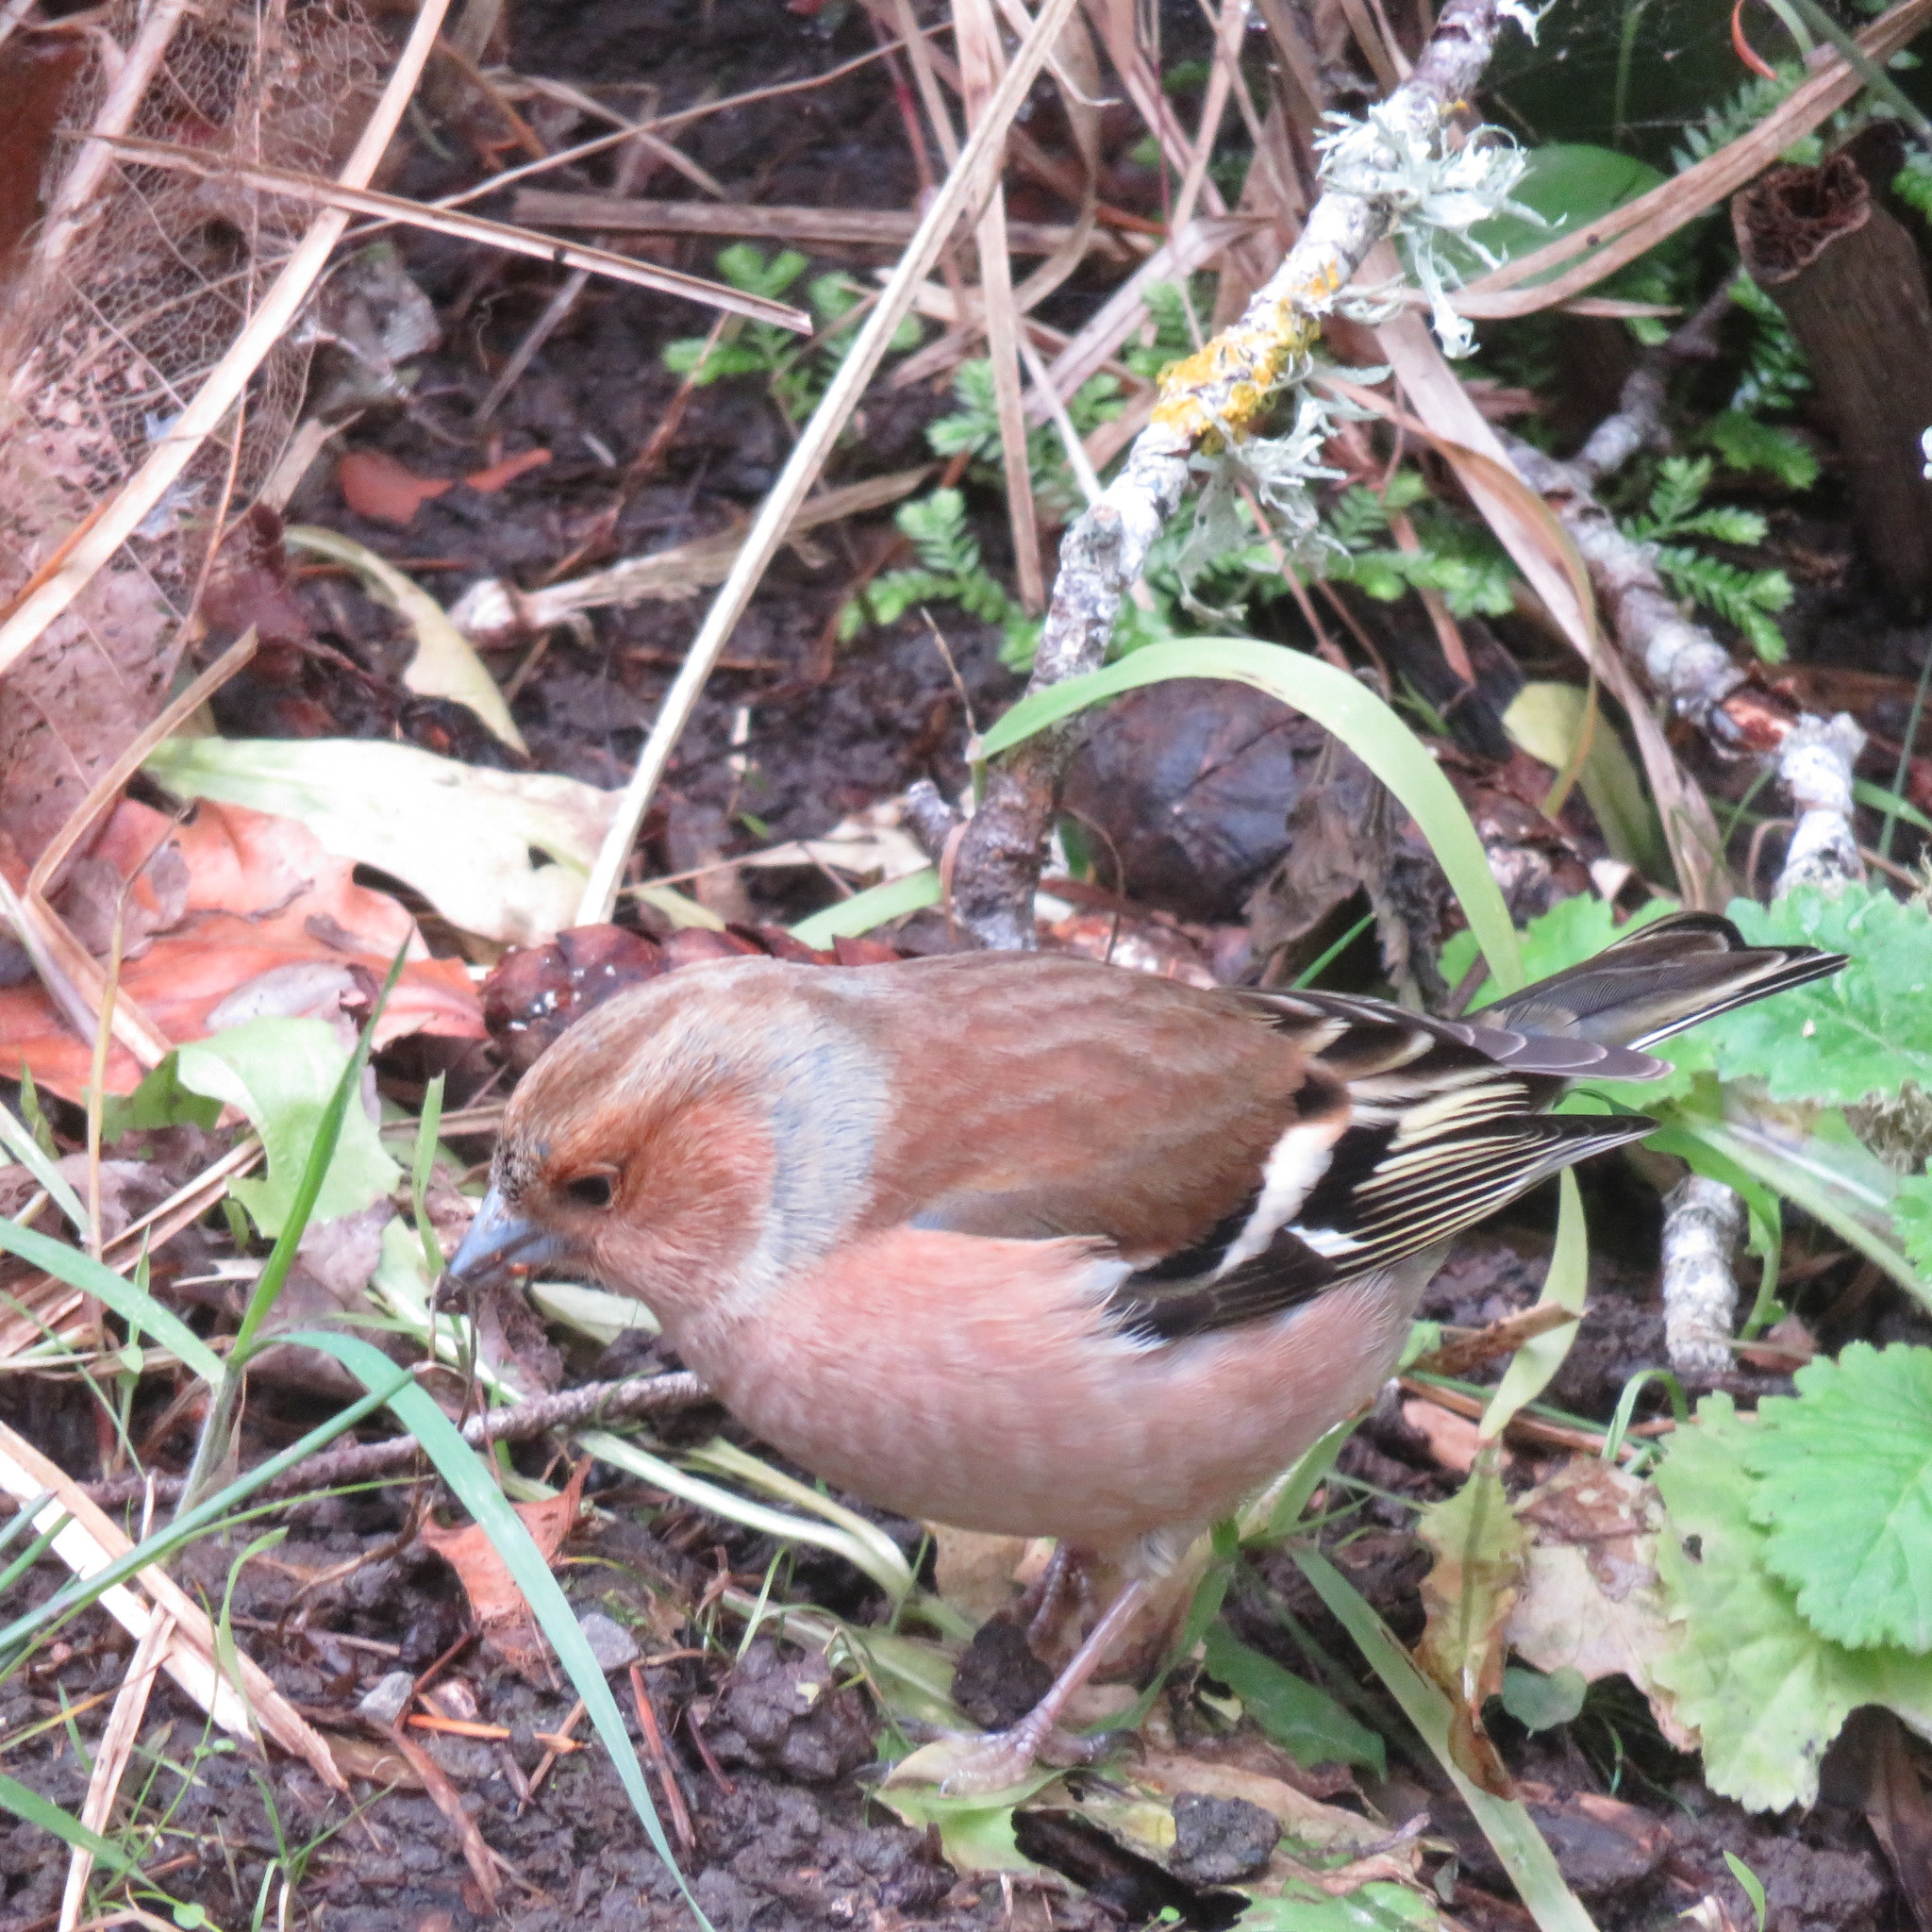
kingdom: Animalia
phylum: Chordata
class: Aves
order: Passeriformes
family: Fringillidae
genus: Fringilla
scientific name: Fringilla coelebs
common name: Common chaffinch
